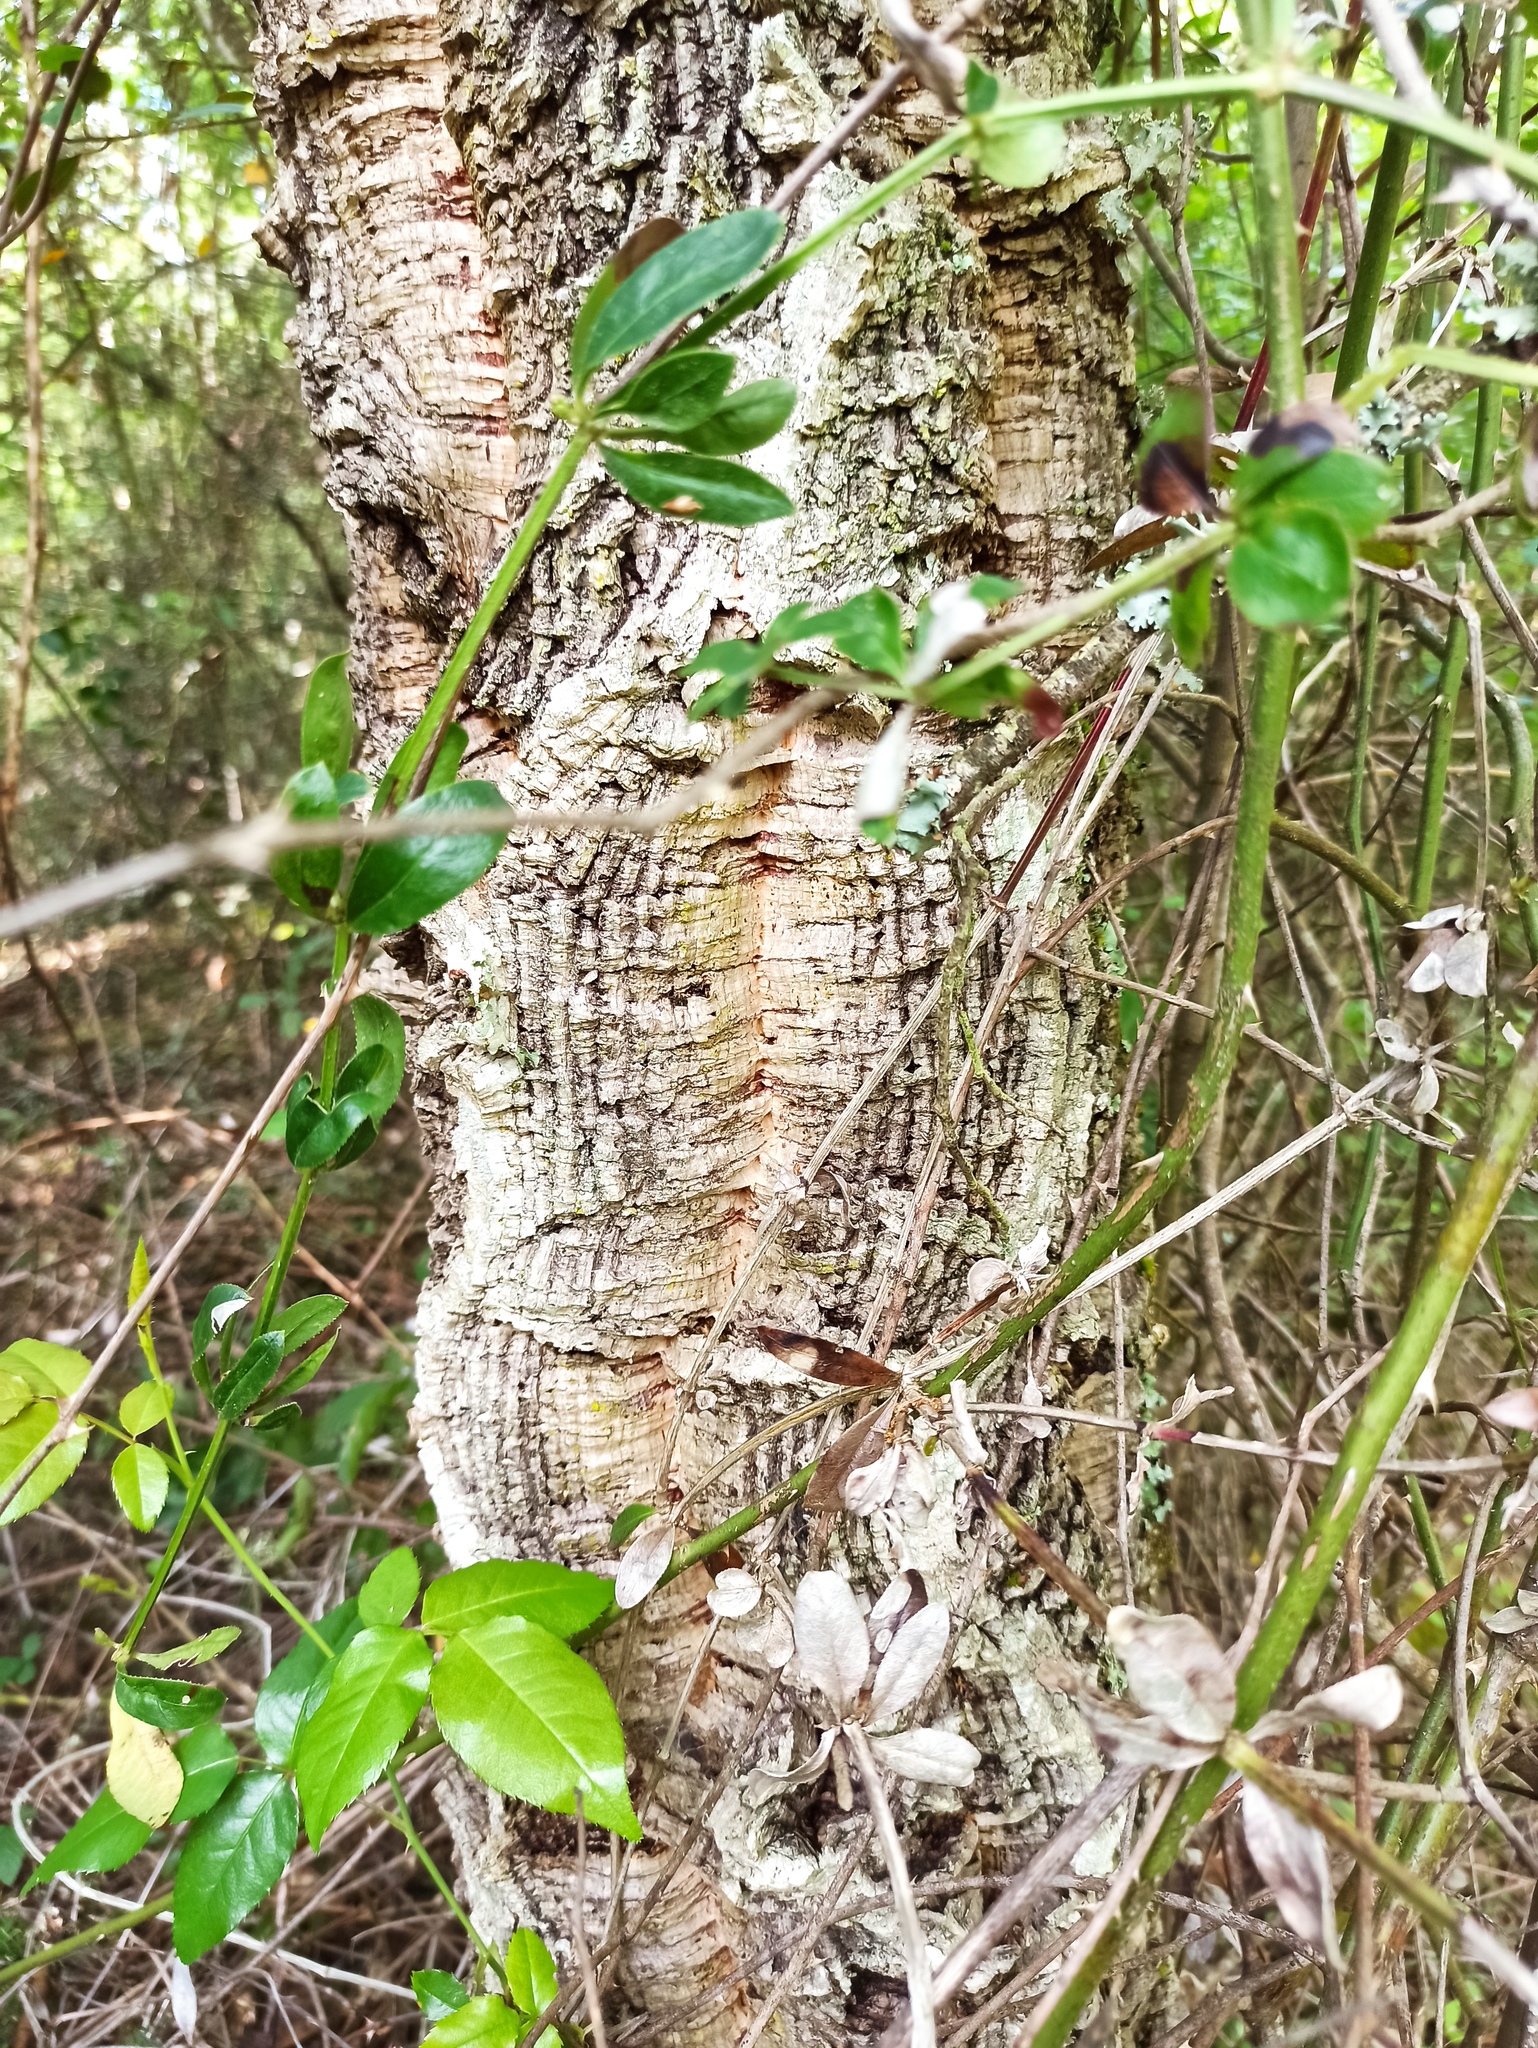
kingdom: Plantae
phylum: Tracheophyta
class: Magnoliopsida
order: Fagales
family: Fagaceae
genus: Quercus
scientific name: Quercus suber
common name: Cork oak
